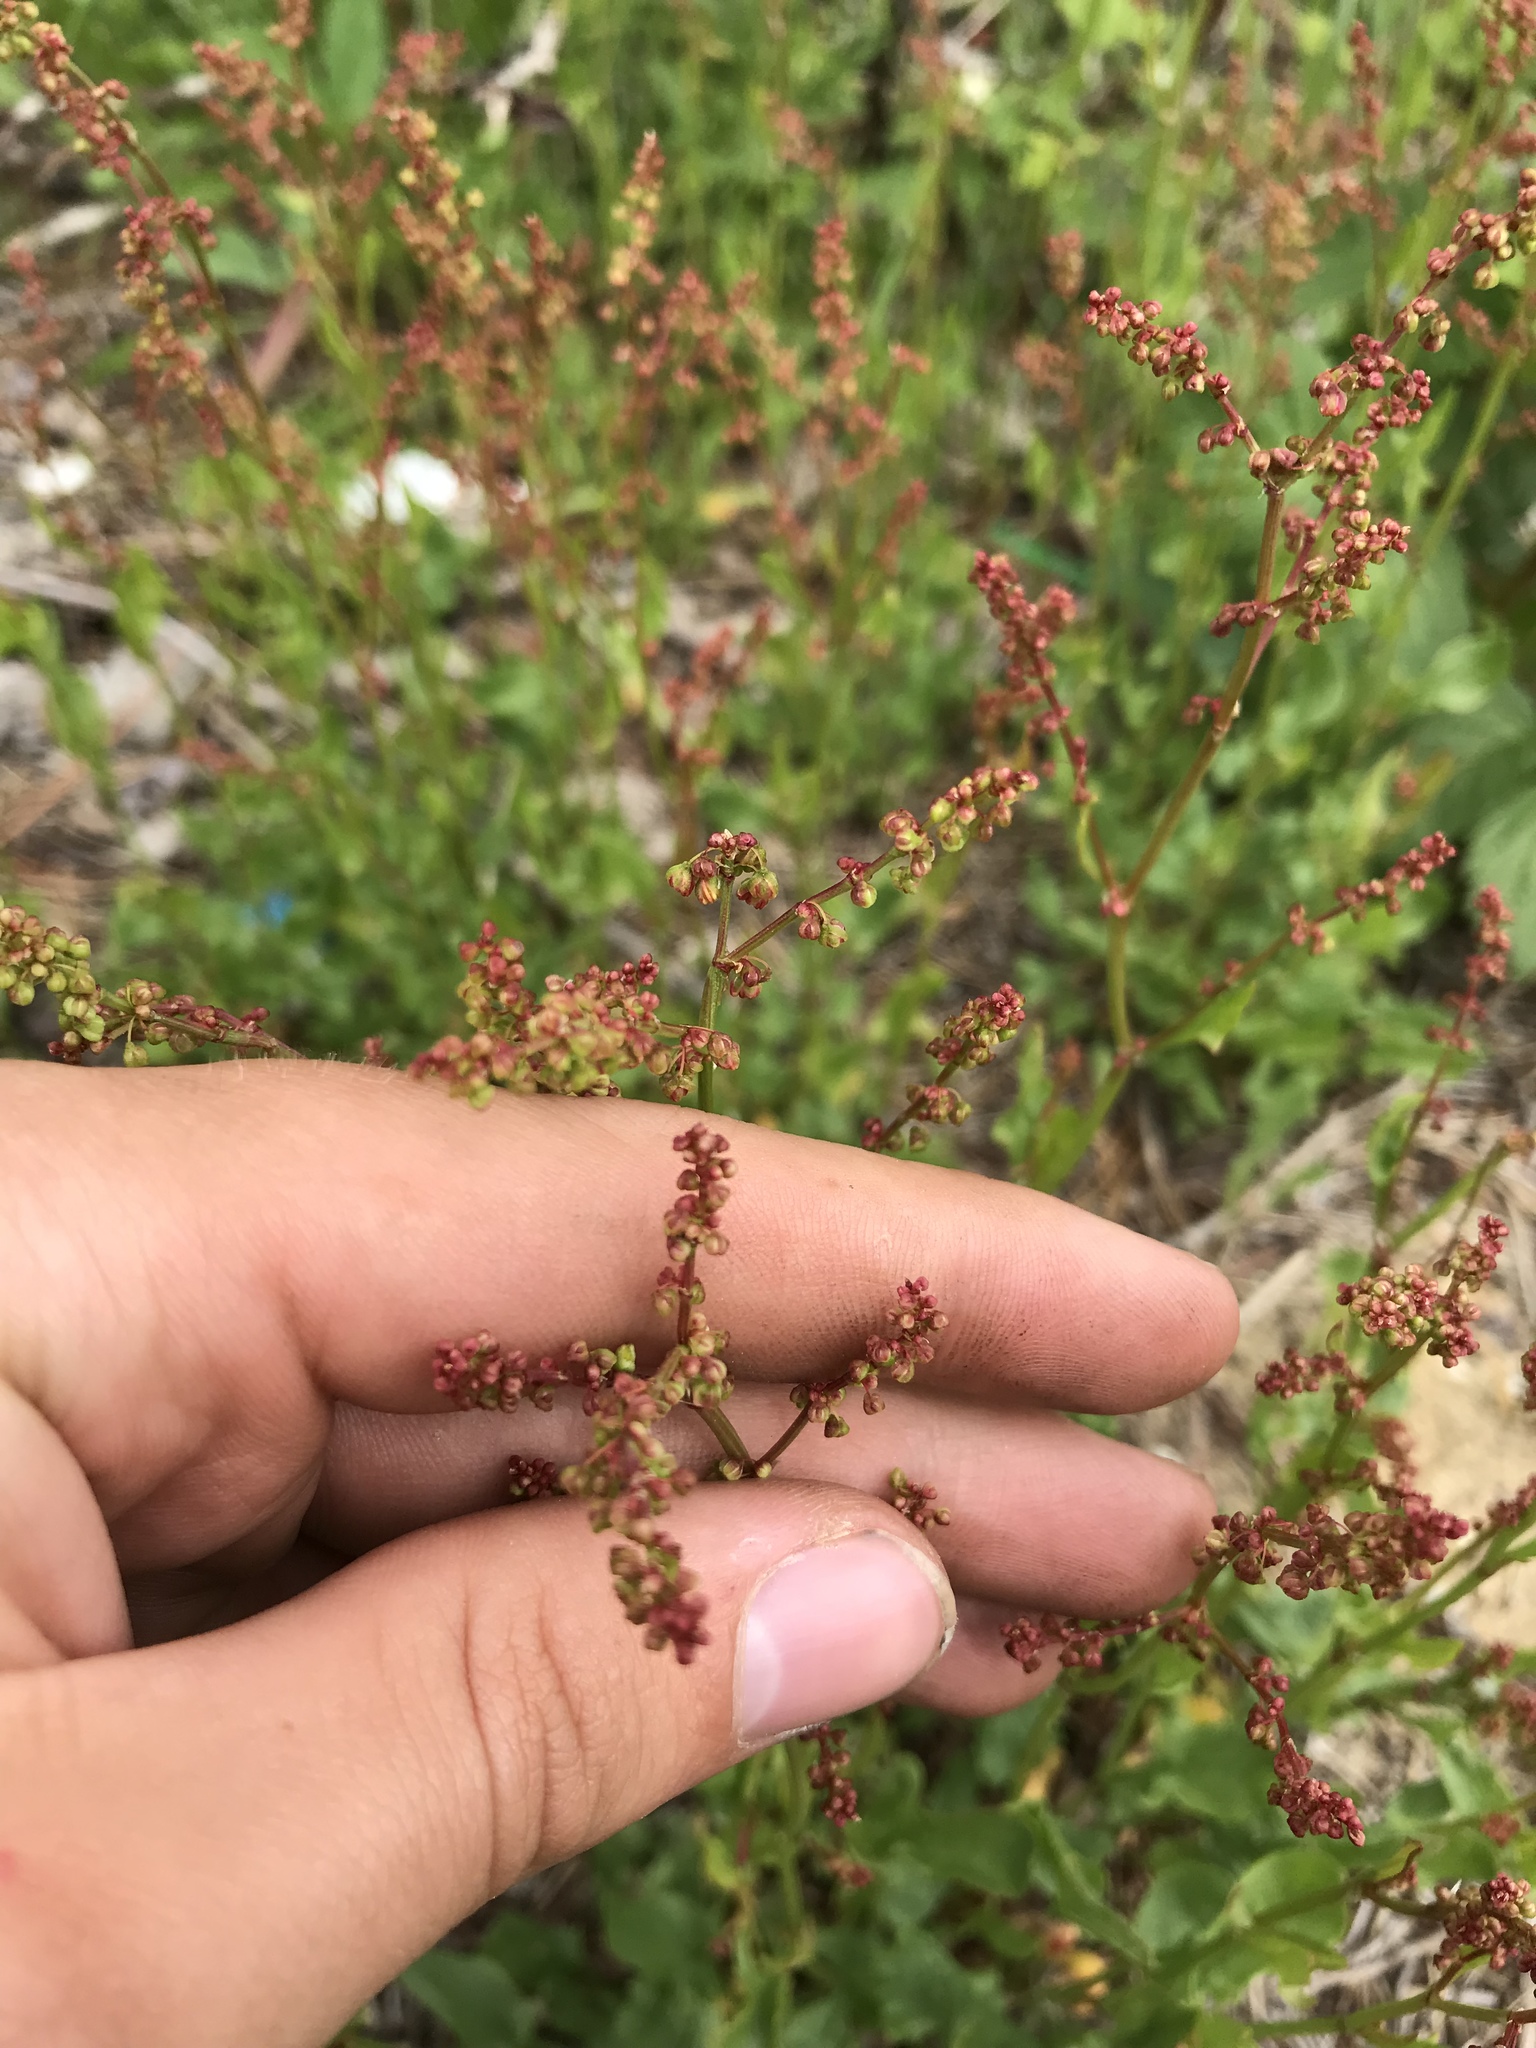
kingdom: Plantae
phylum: Tracheophyta
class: Magnoliopsida
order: Caryophyllales
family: Polygonaceae
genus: Rumex
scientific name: Rumex acetosella
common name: Common sheep sorrel
